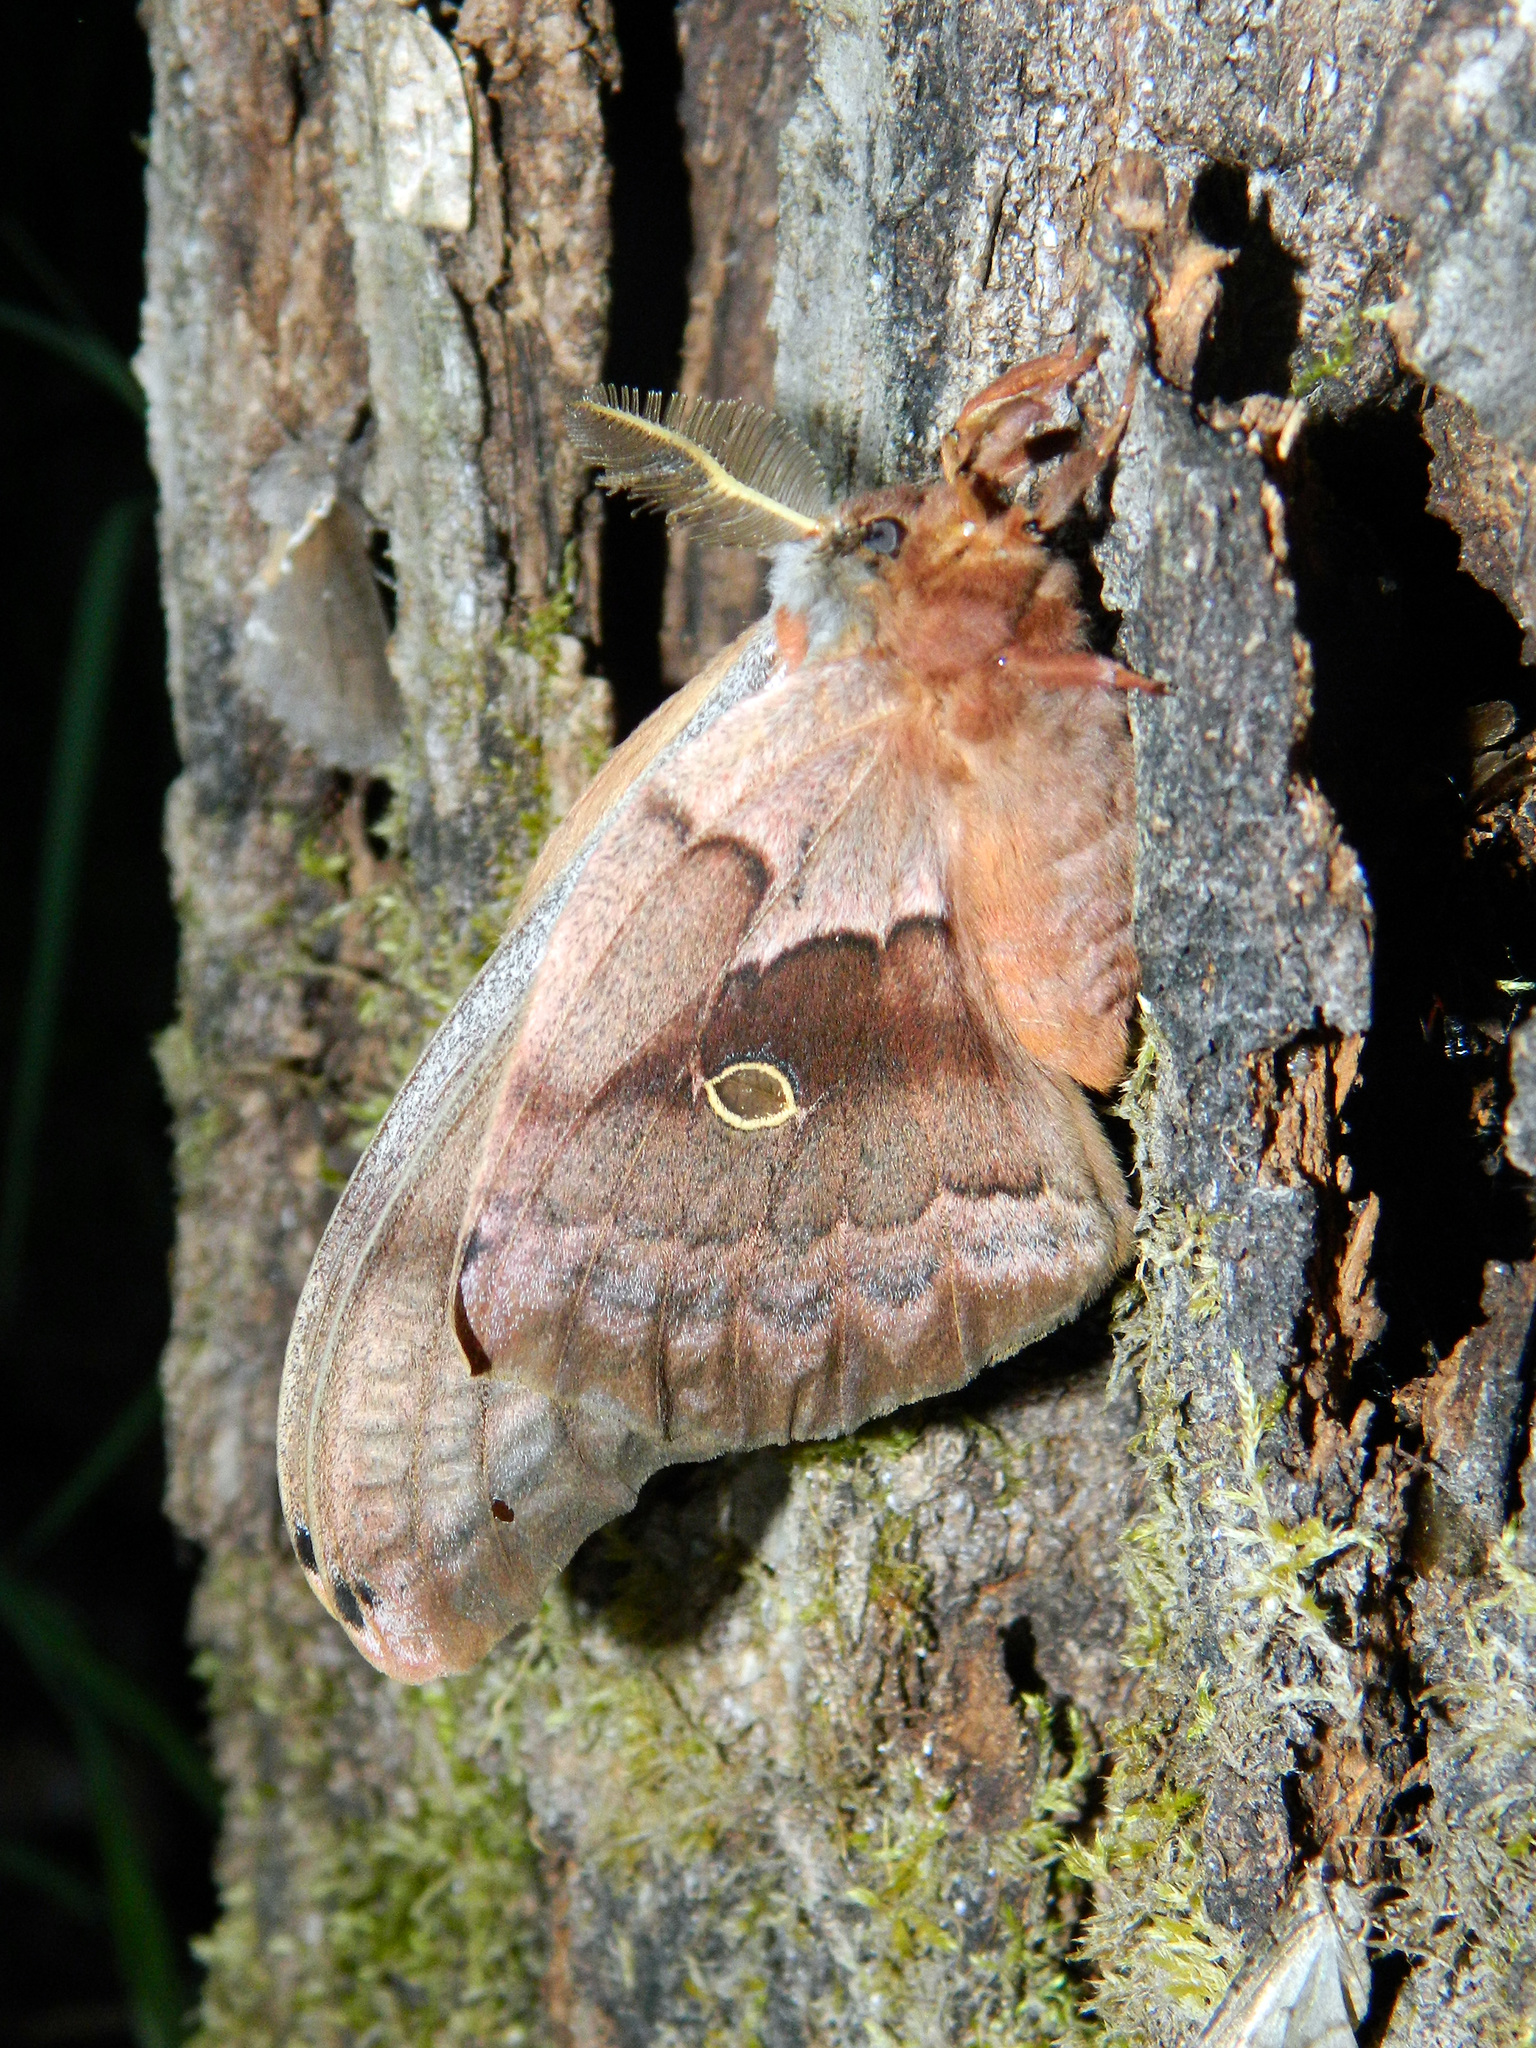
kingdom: Animalia
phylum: Arthropoda
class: Insecta
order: Lepidoptera
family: Saturniidae
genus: Antheraea
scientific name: Antheraea polyphemus
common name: Polyphemus moth
